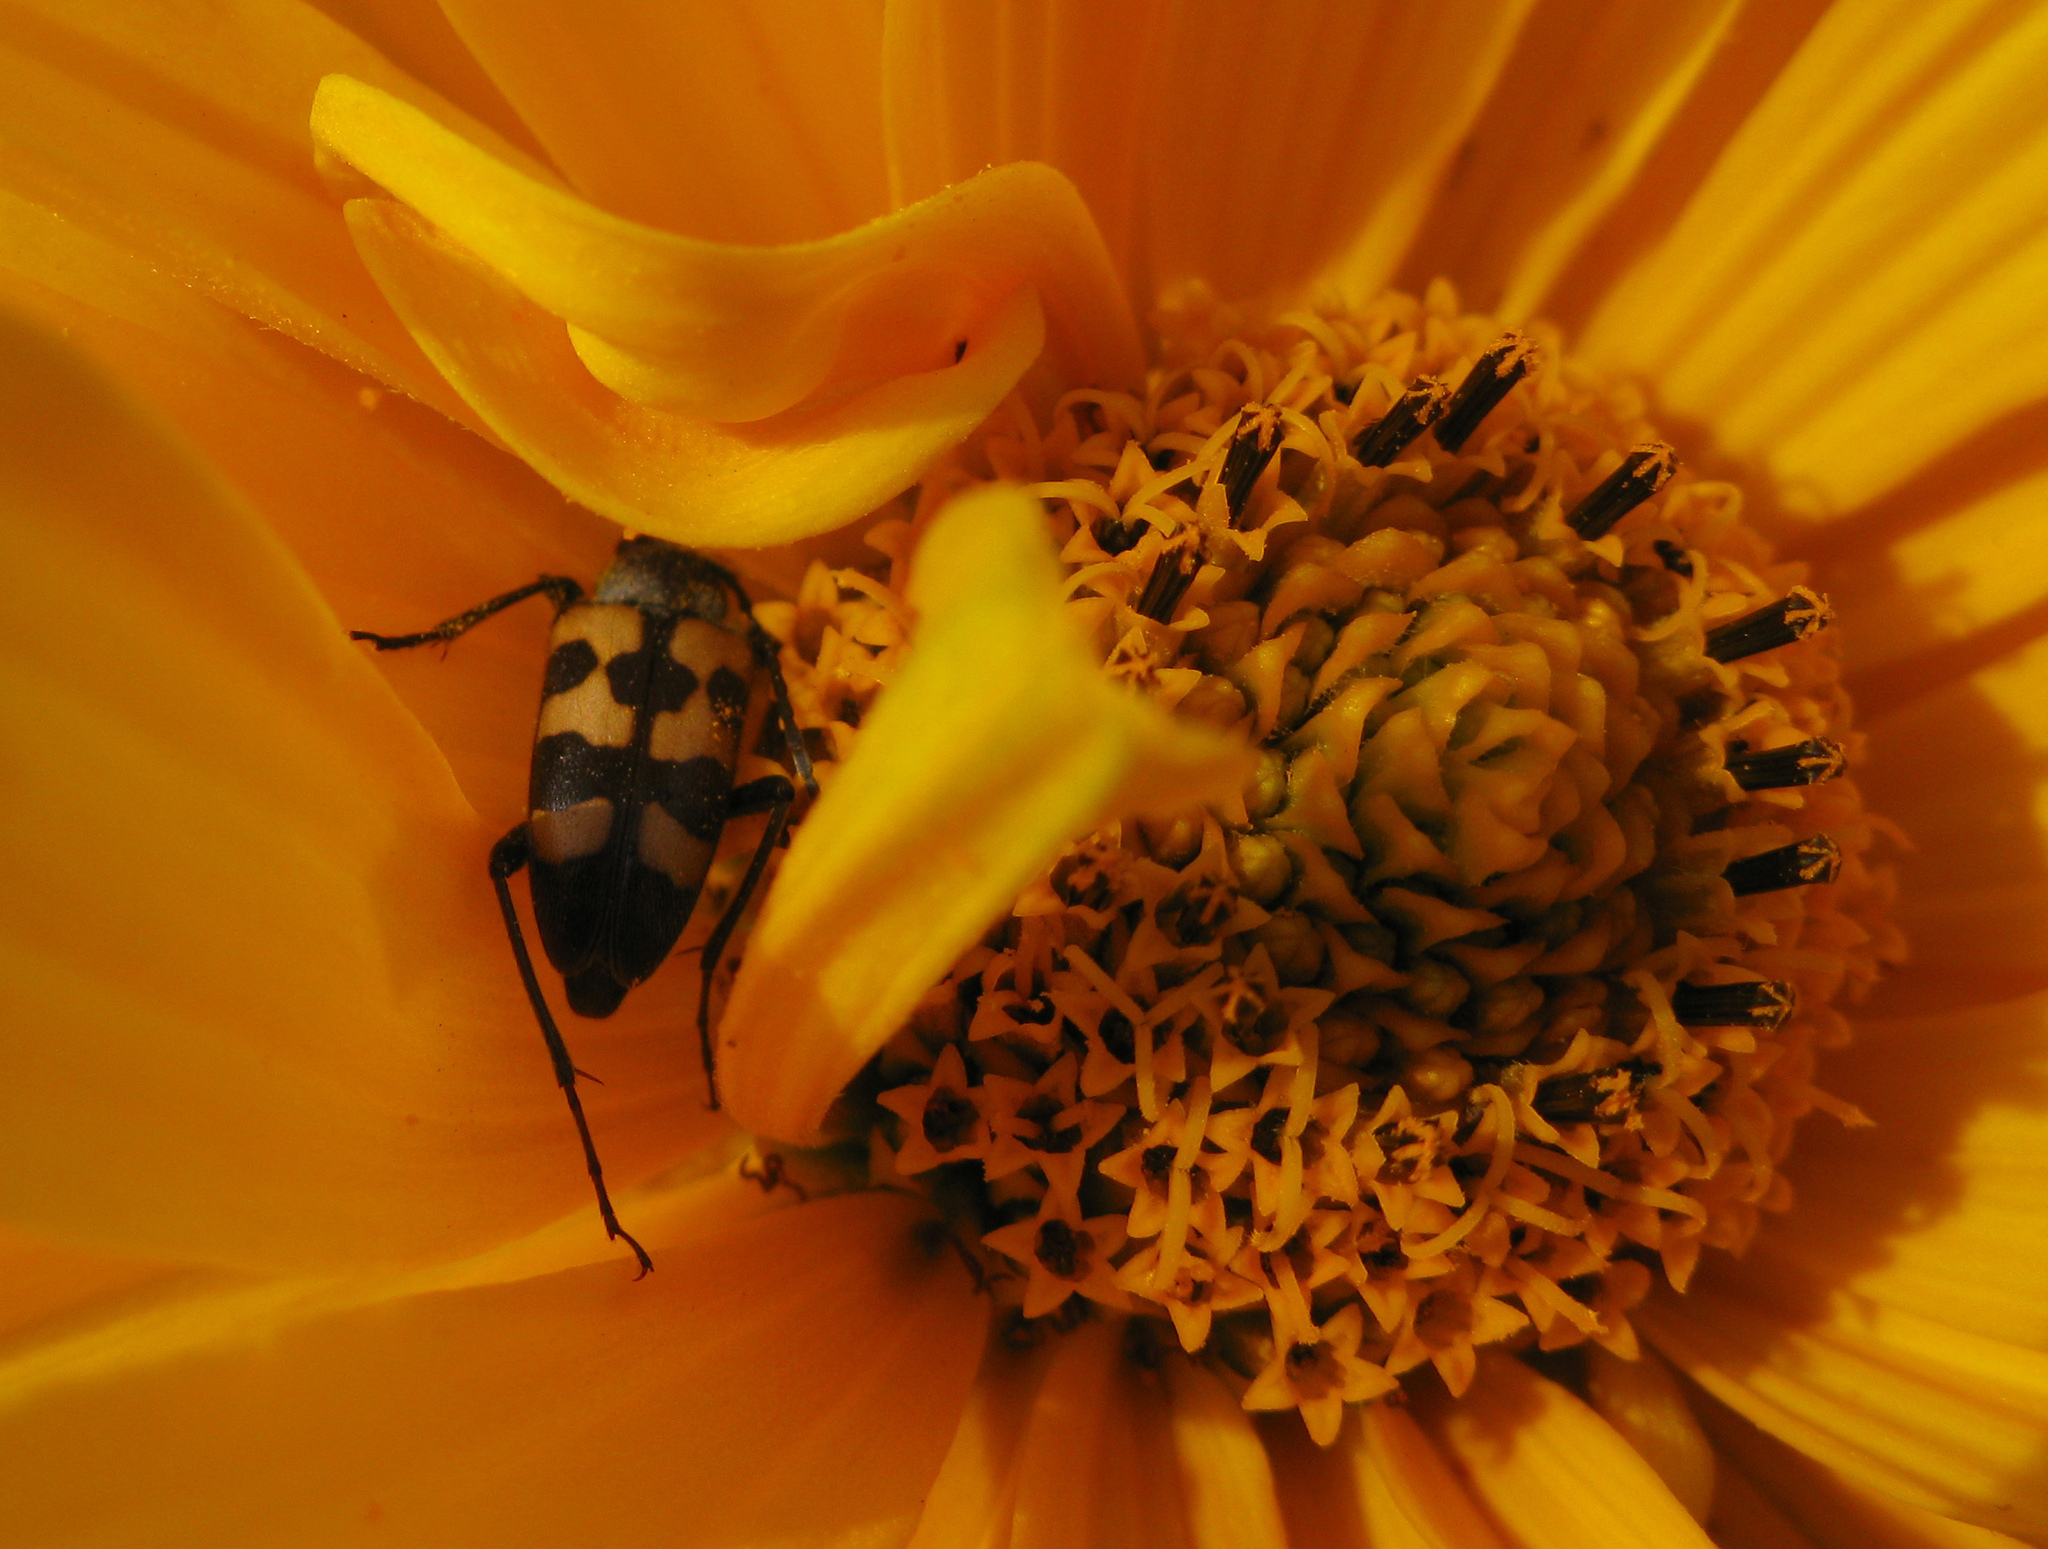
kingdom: Animalia
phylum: Arthropoda
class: Insecta
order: Coleoptera
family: Cerambycidae
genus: Pachytodes
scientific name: Pachytodes
